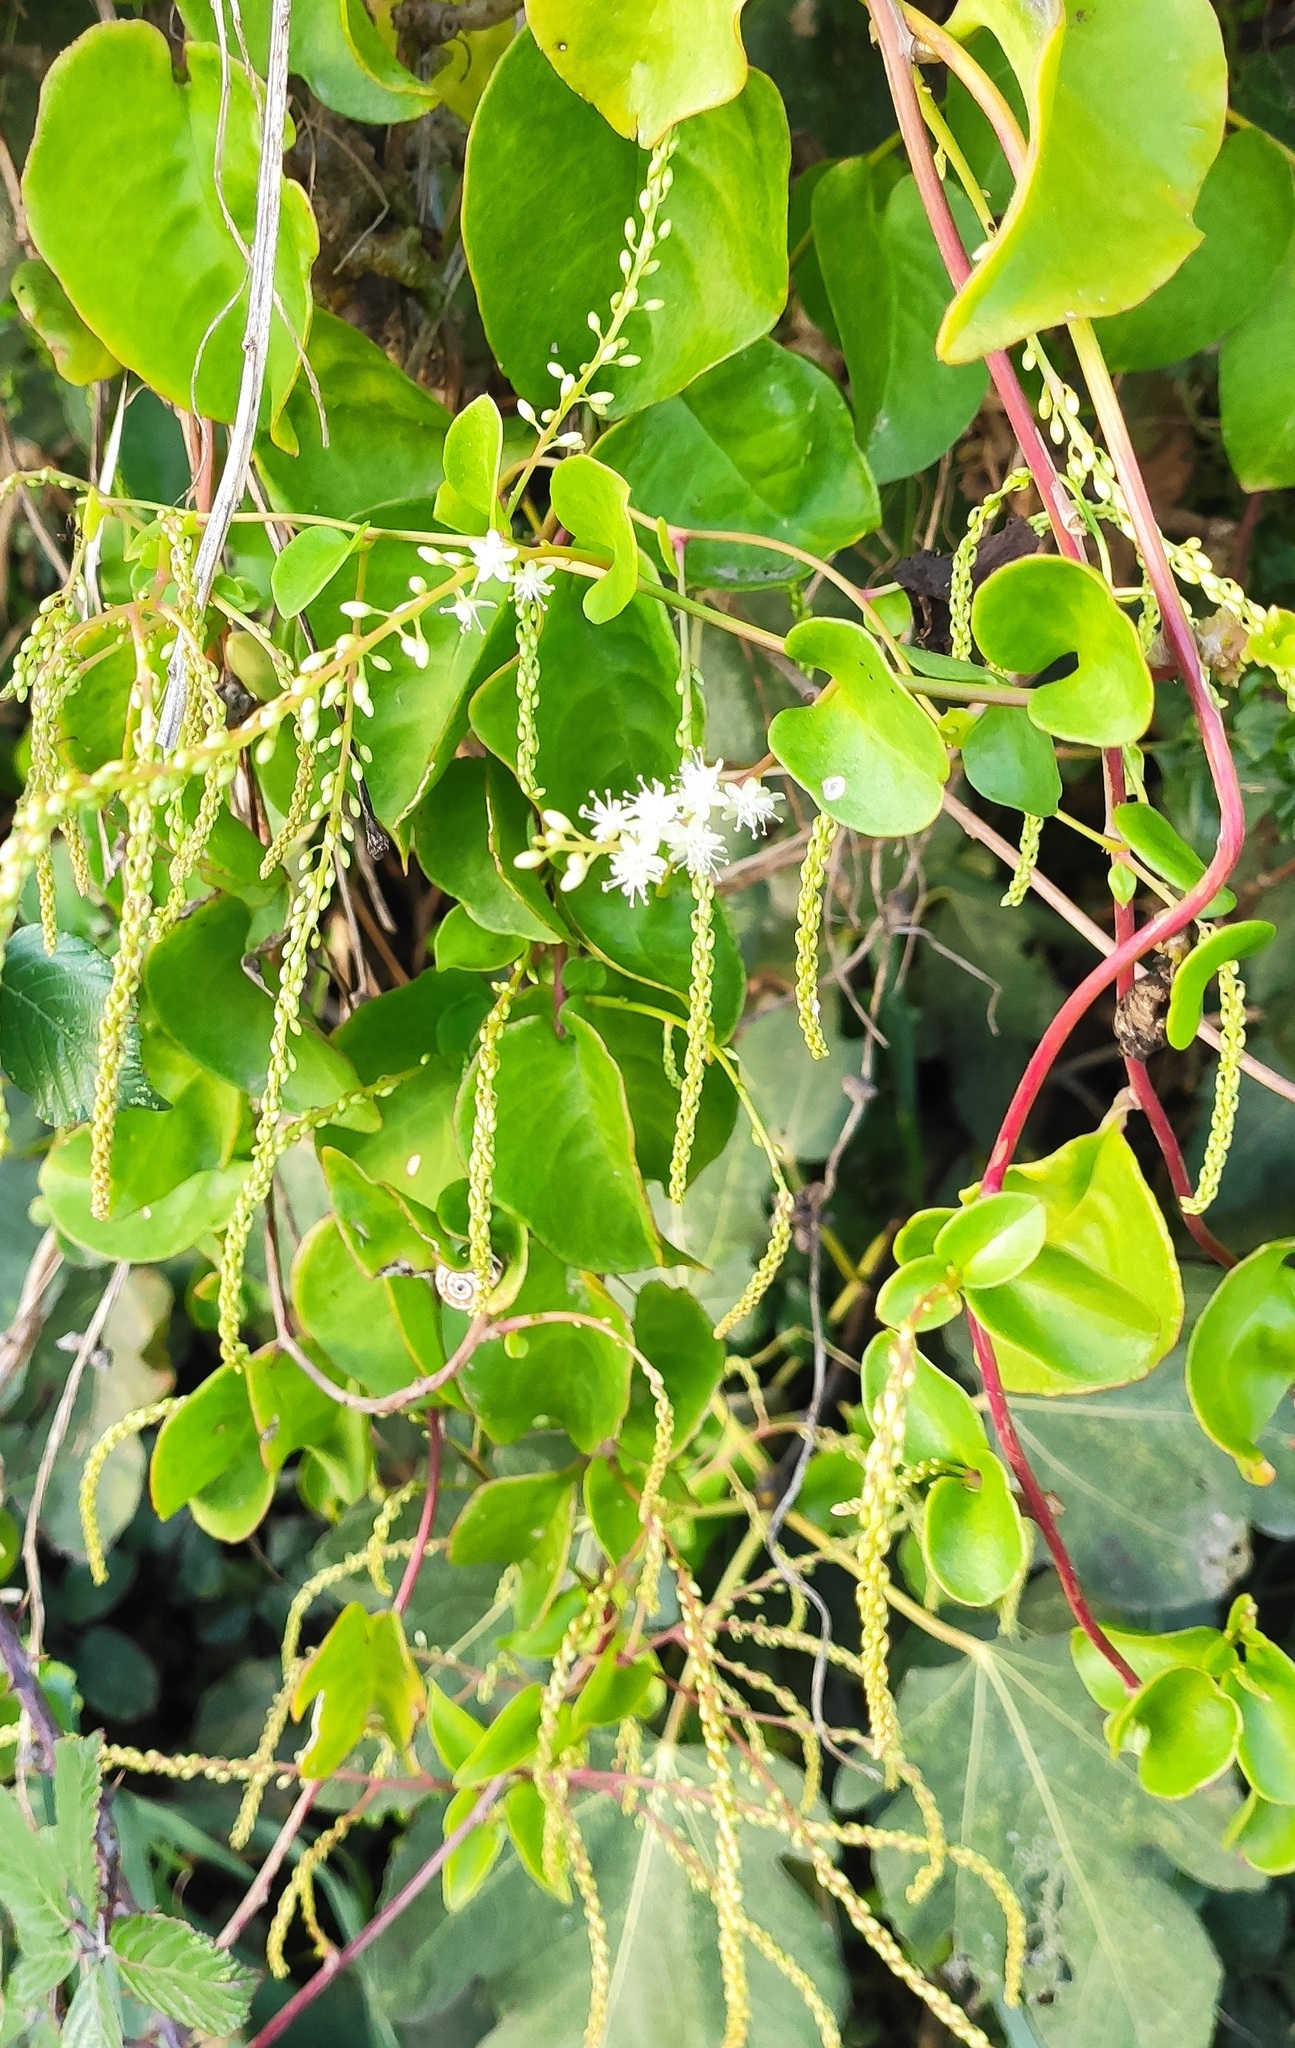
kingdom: Plantae
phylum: Tracheophyta
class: Magnoliopsida
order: Caryophyllales
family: Basellaceae
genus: Anredera
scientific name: Anredera cordifolia
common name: Heartleaf madeiravine
